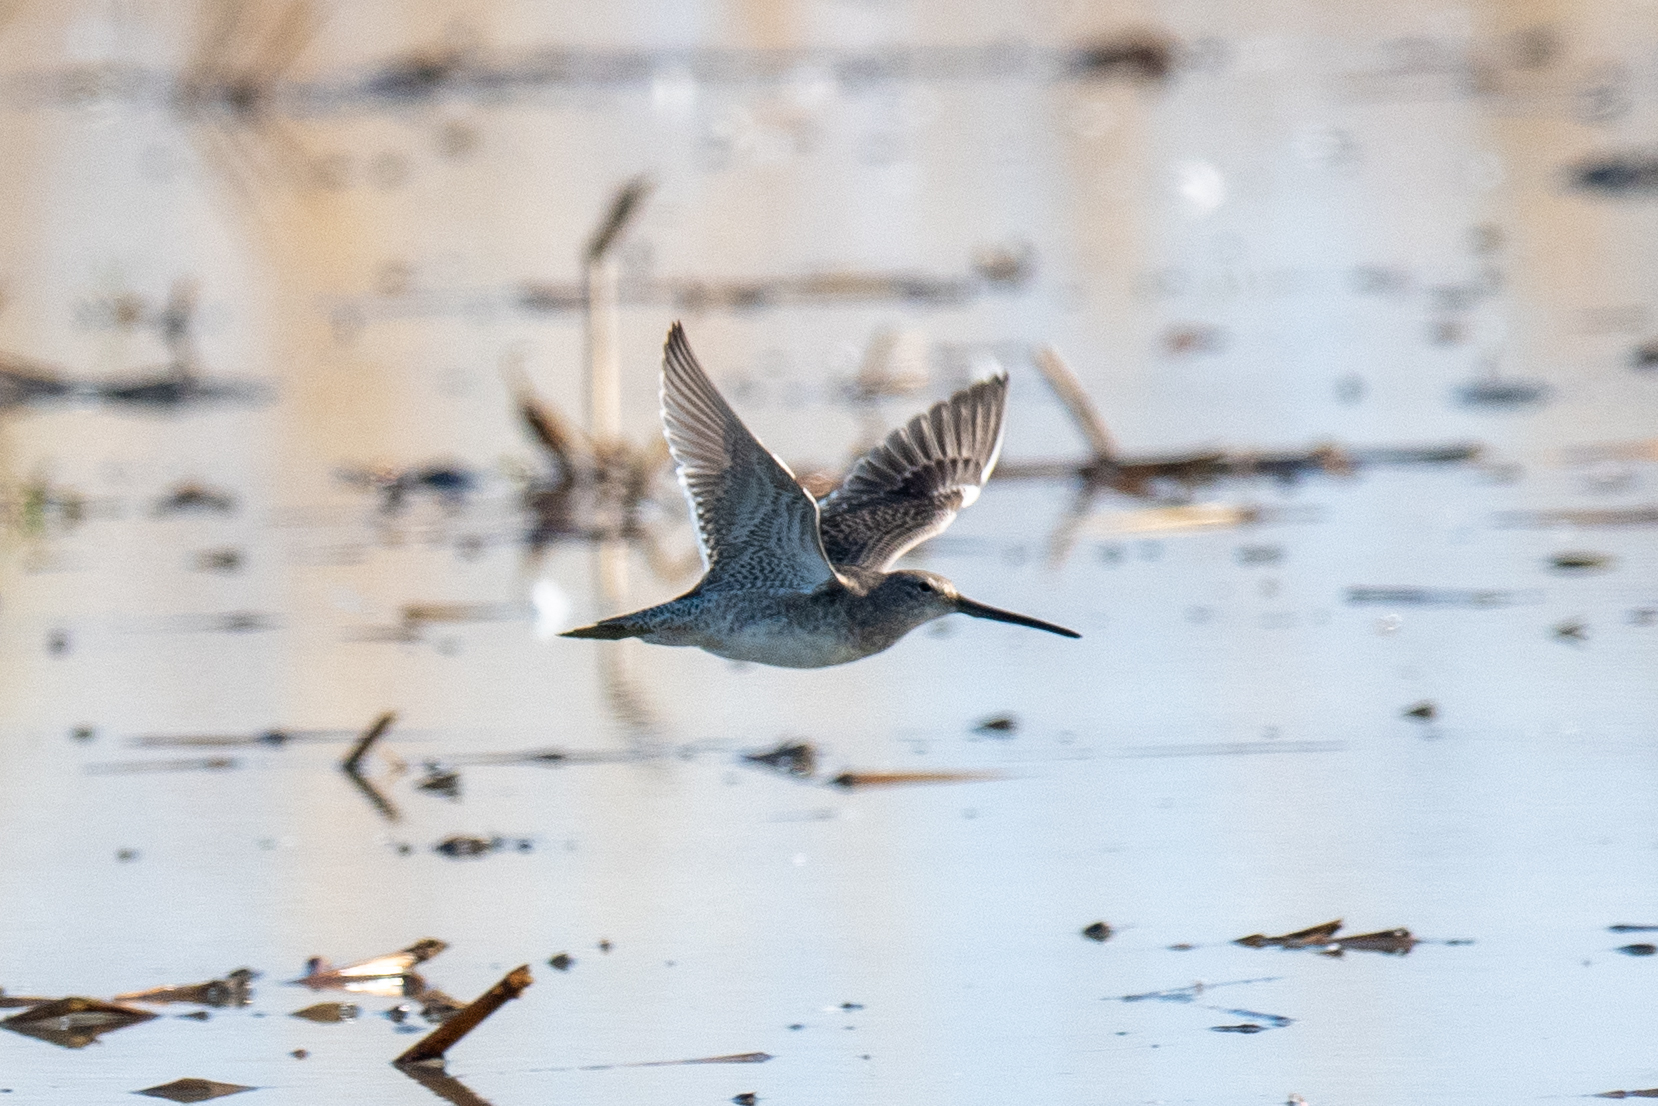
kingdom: Animalia
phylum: Chordata
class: Aves
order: Charadriiformes
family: Scolopacidae
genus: Limnodromus
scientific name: Limnodromus scolopaceus
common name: Long-billed dowitcher
